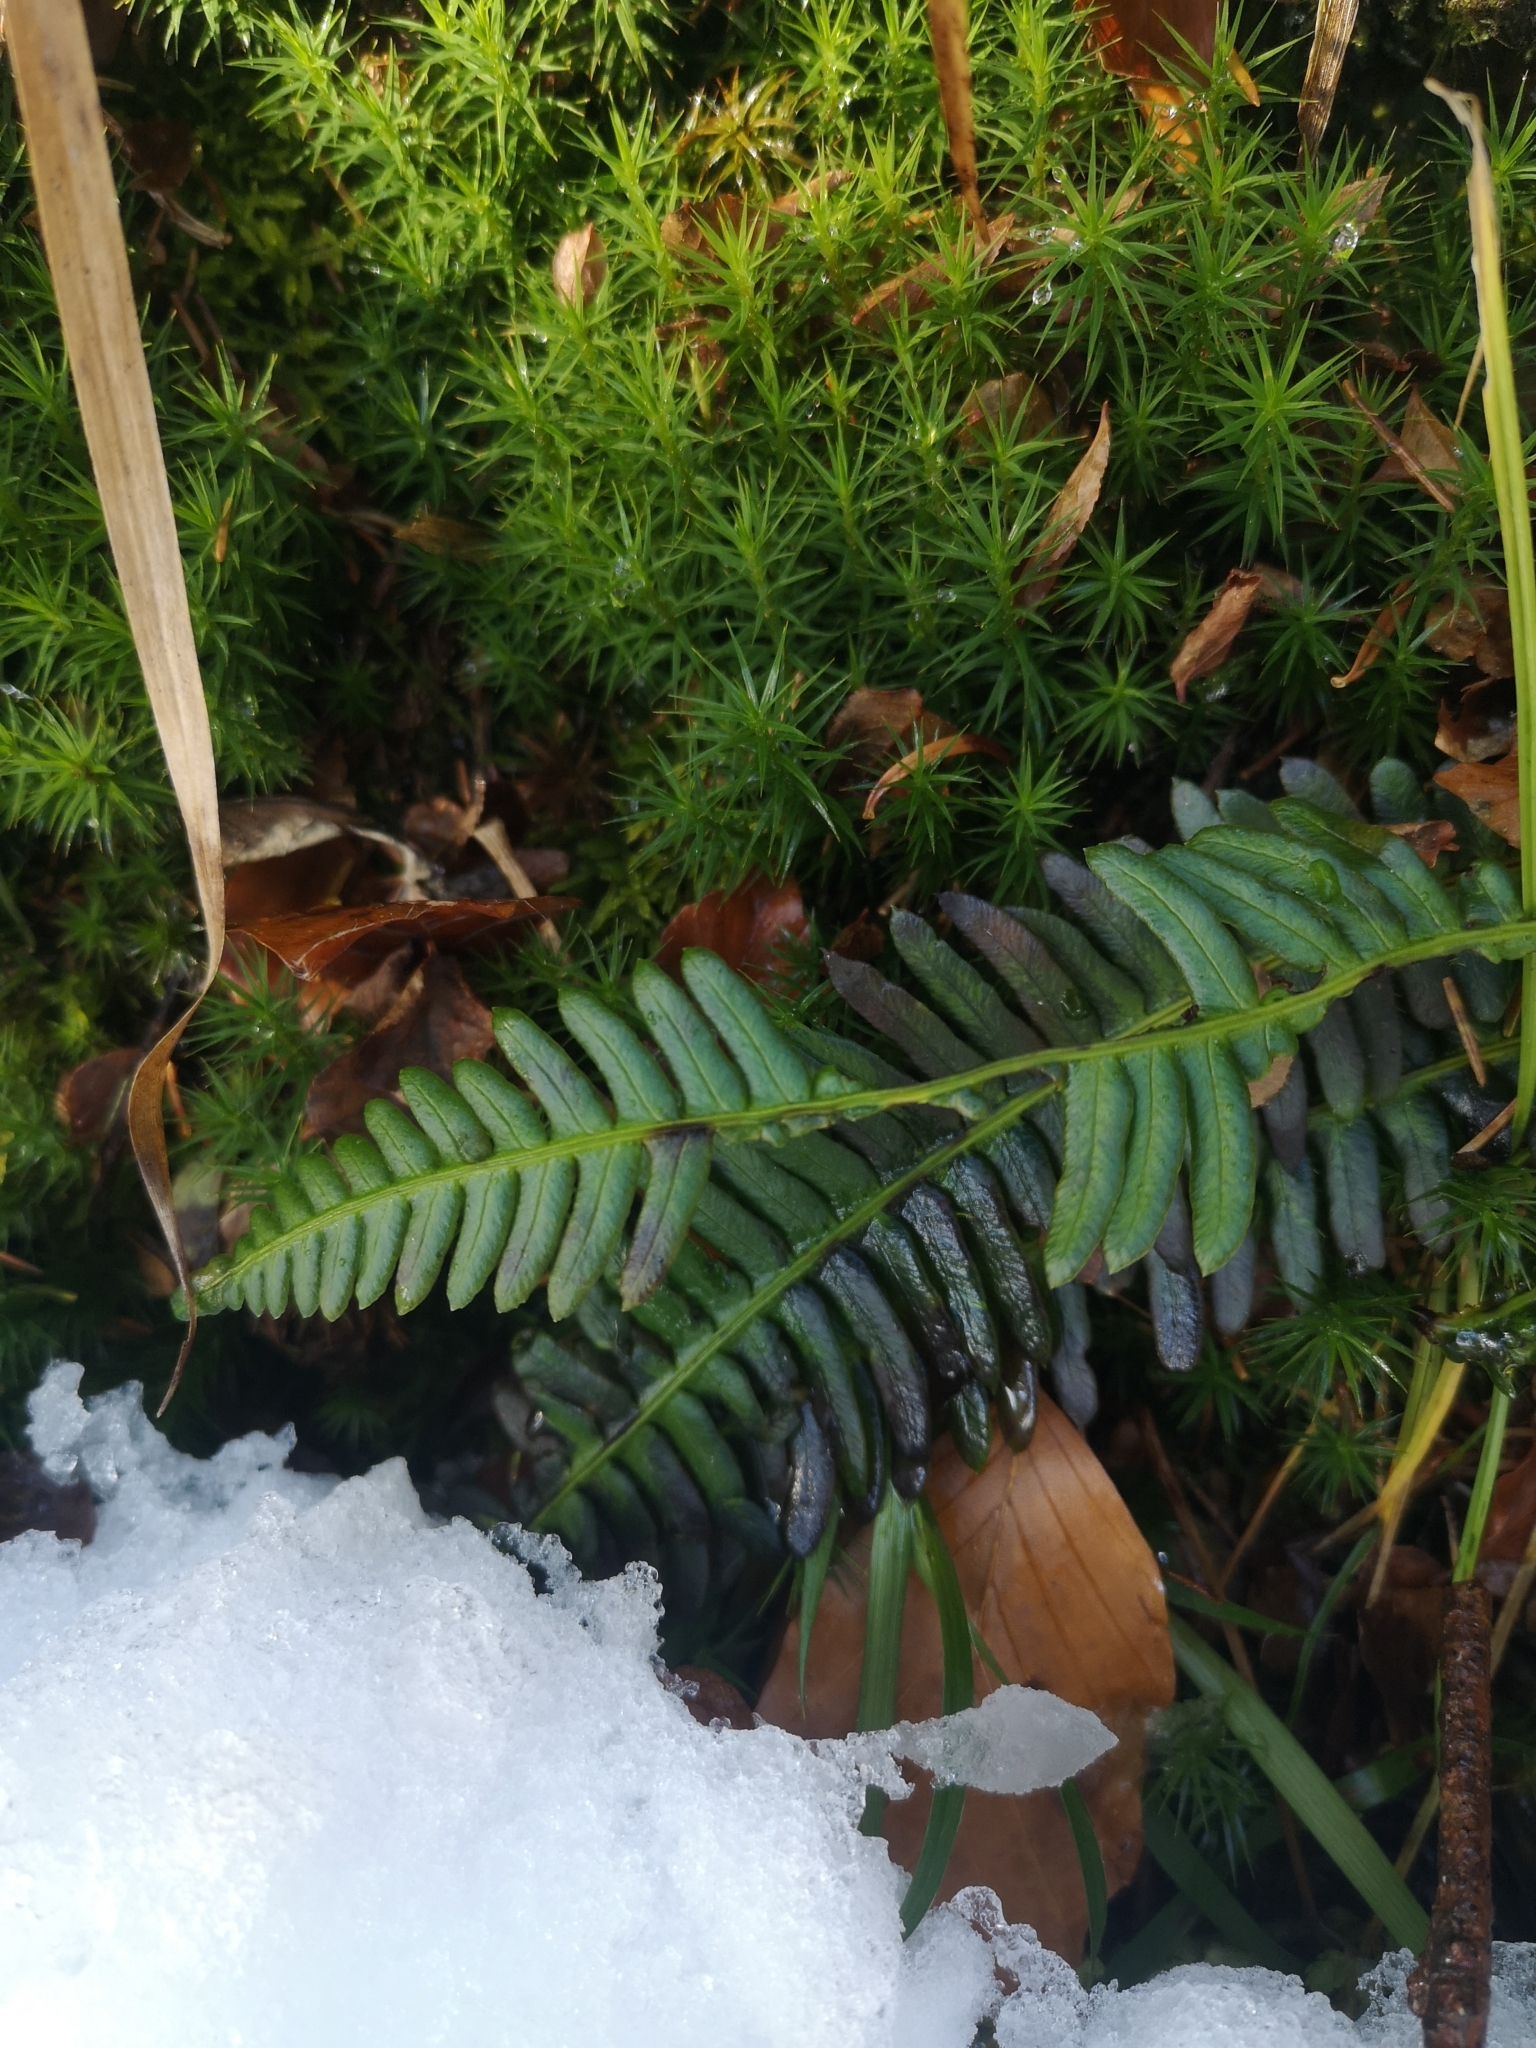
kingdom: Plantae
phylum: Tracheophyta
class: Polypodiopsida
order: Polypodiales
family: Blechnaceae
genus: Struthiopteris
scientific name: Struthiopteris spicant
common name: Deer fern
